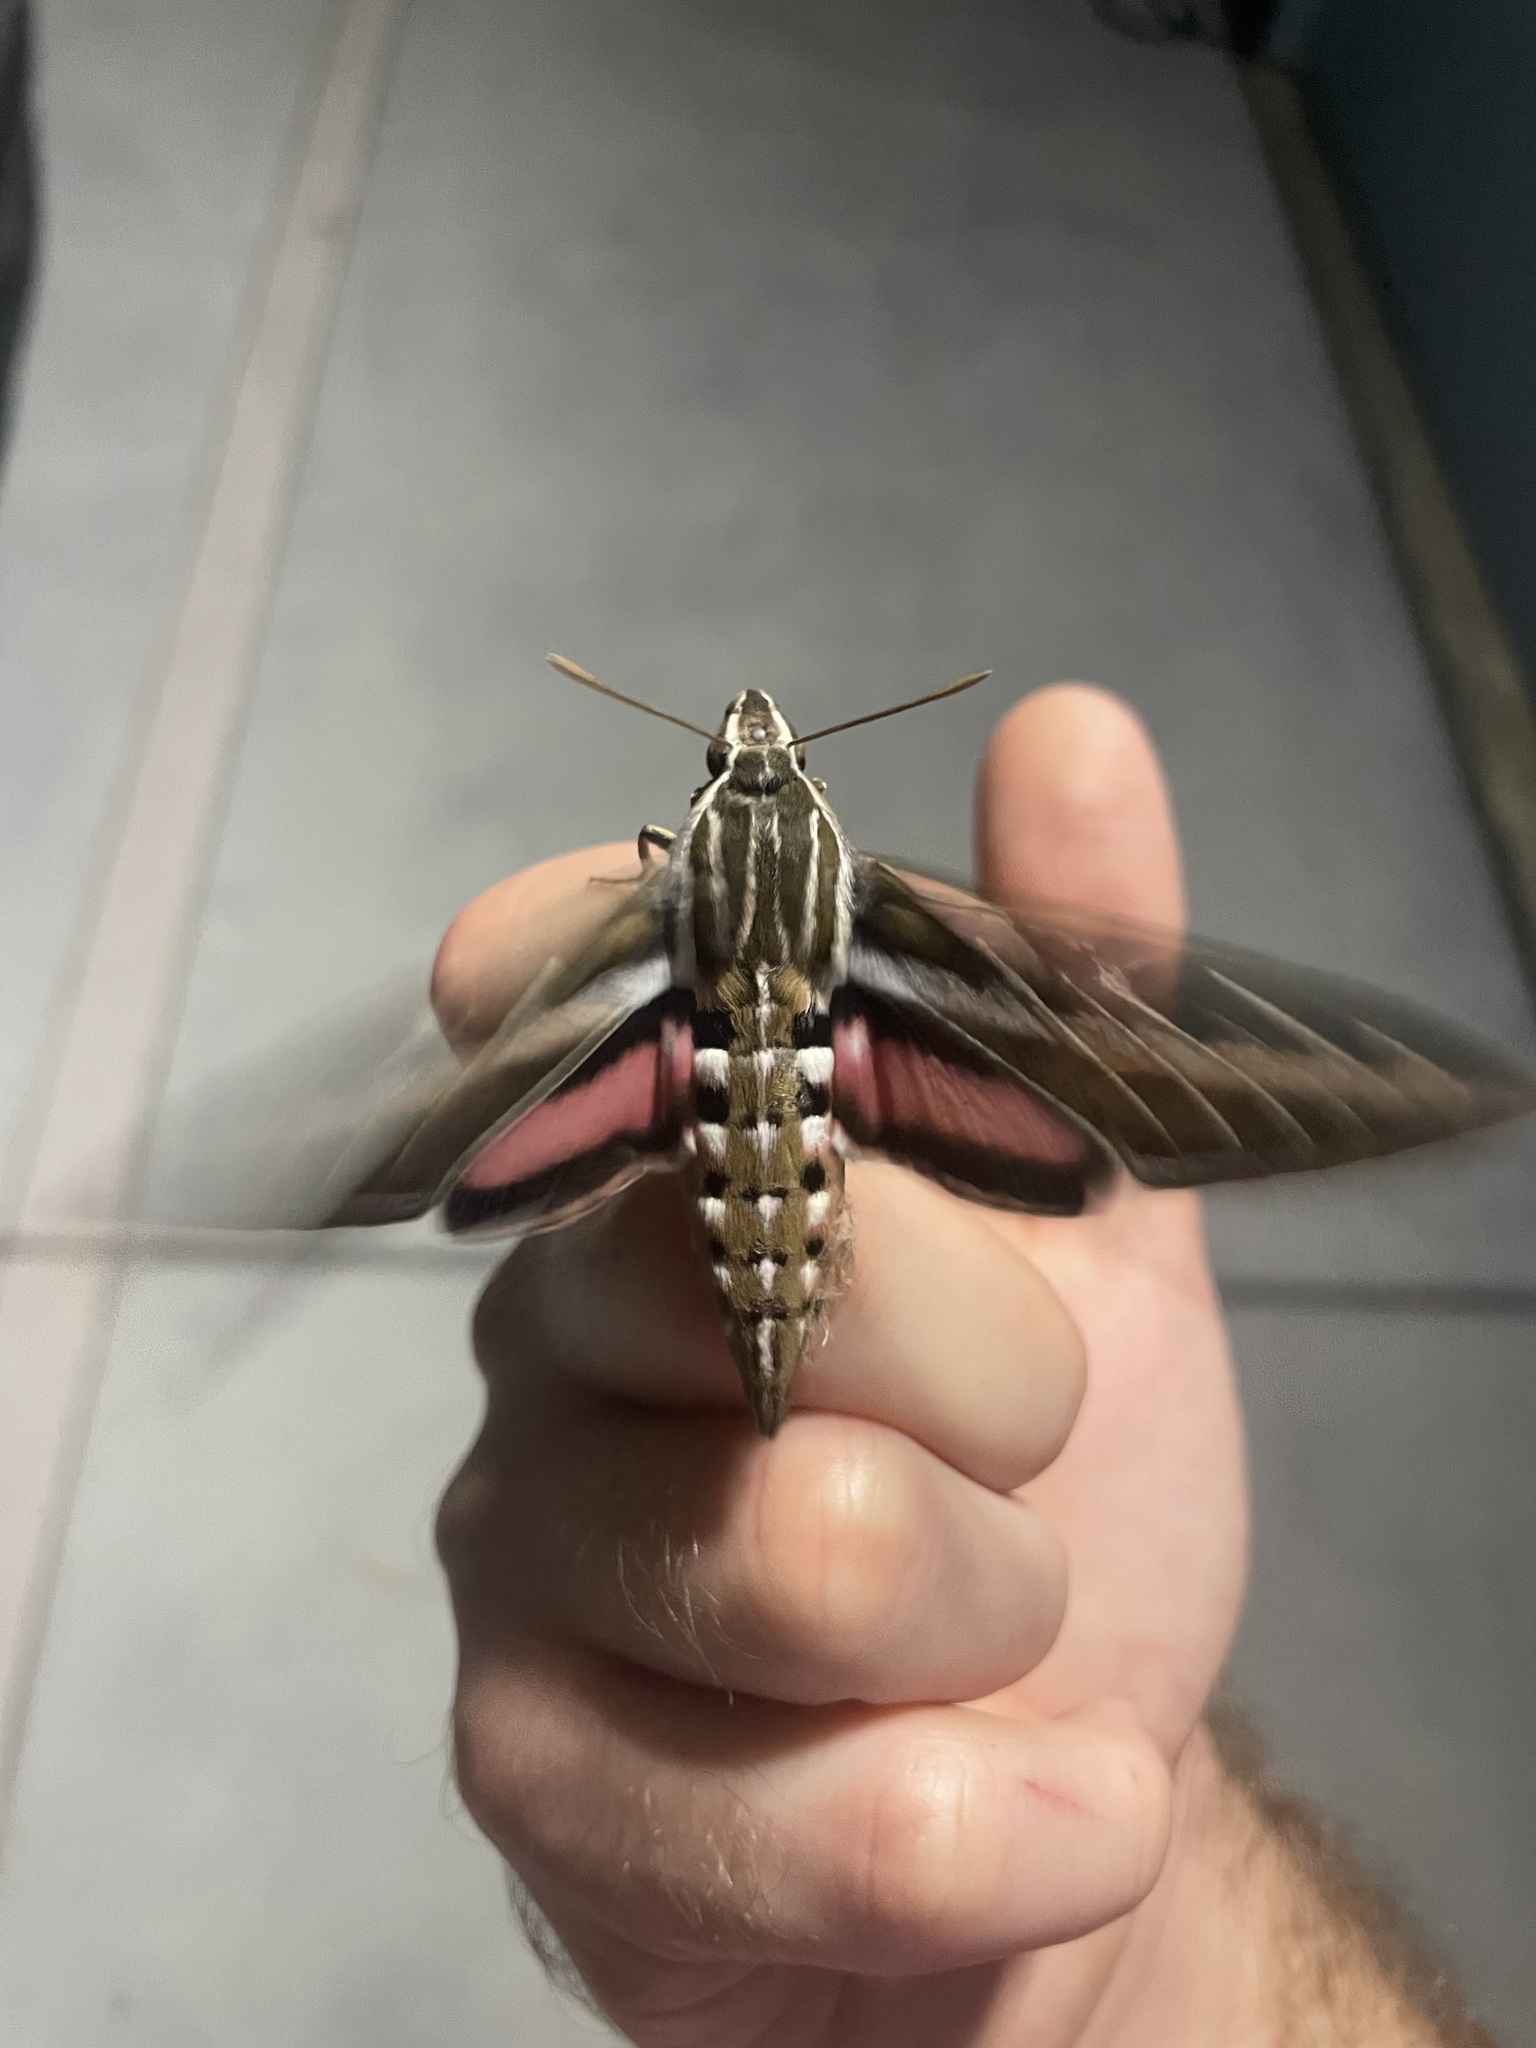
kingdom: Animalia
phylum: Arthropoda
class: Insecta
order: Lepidoptera
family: Sphingidae
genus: Hyles
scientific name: Hyles lineata
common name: White-lined sphinx
